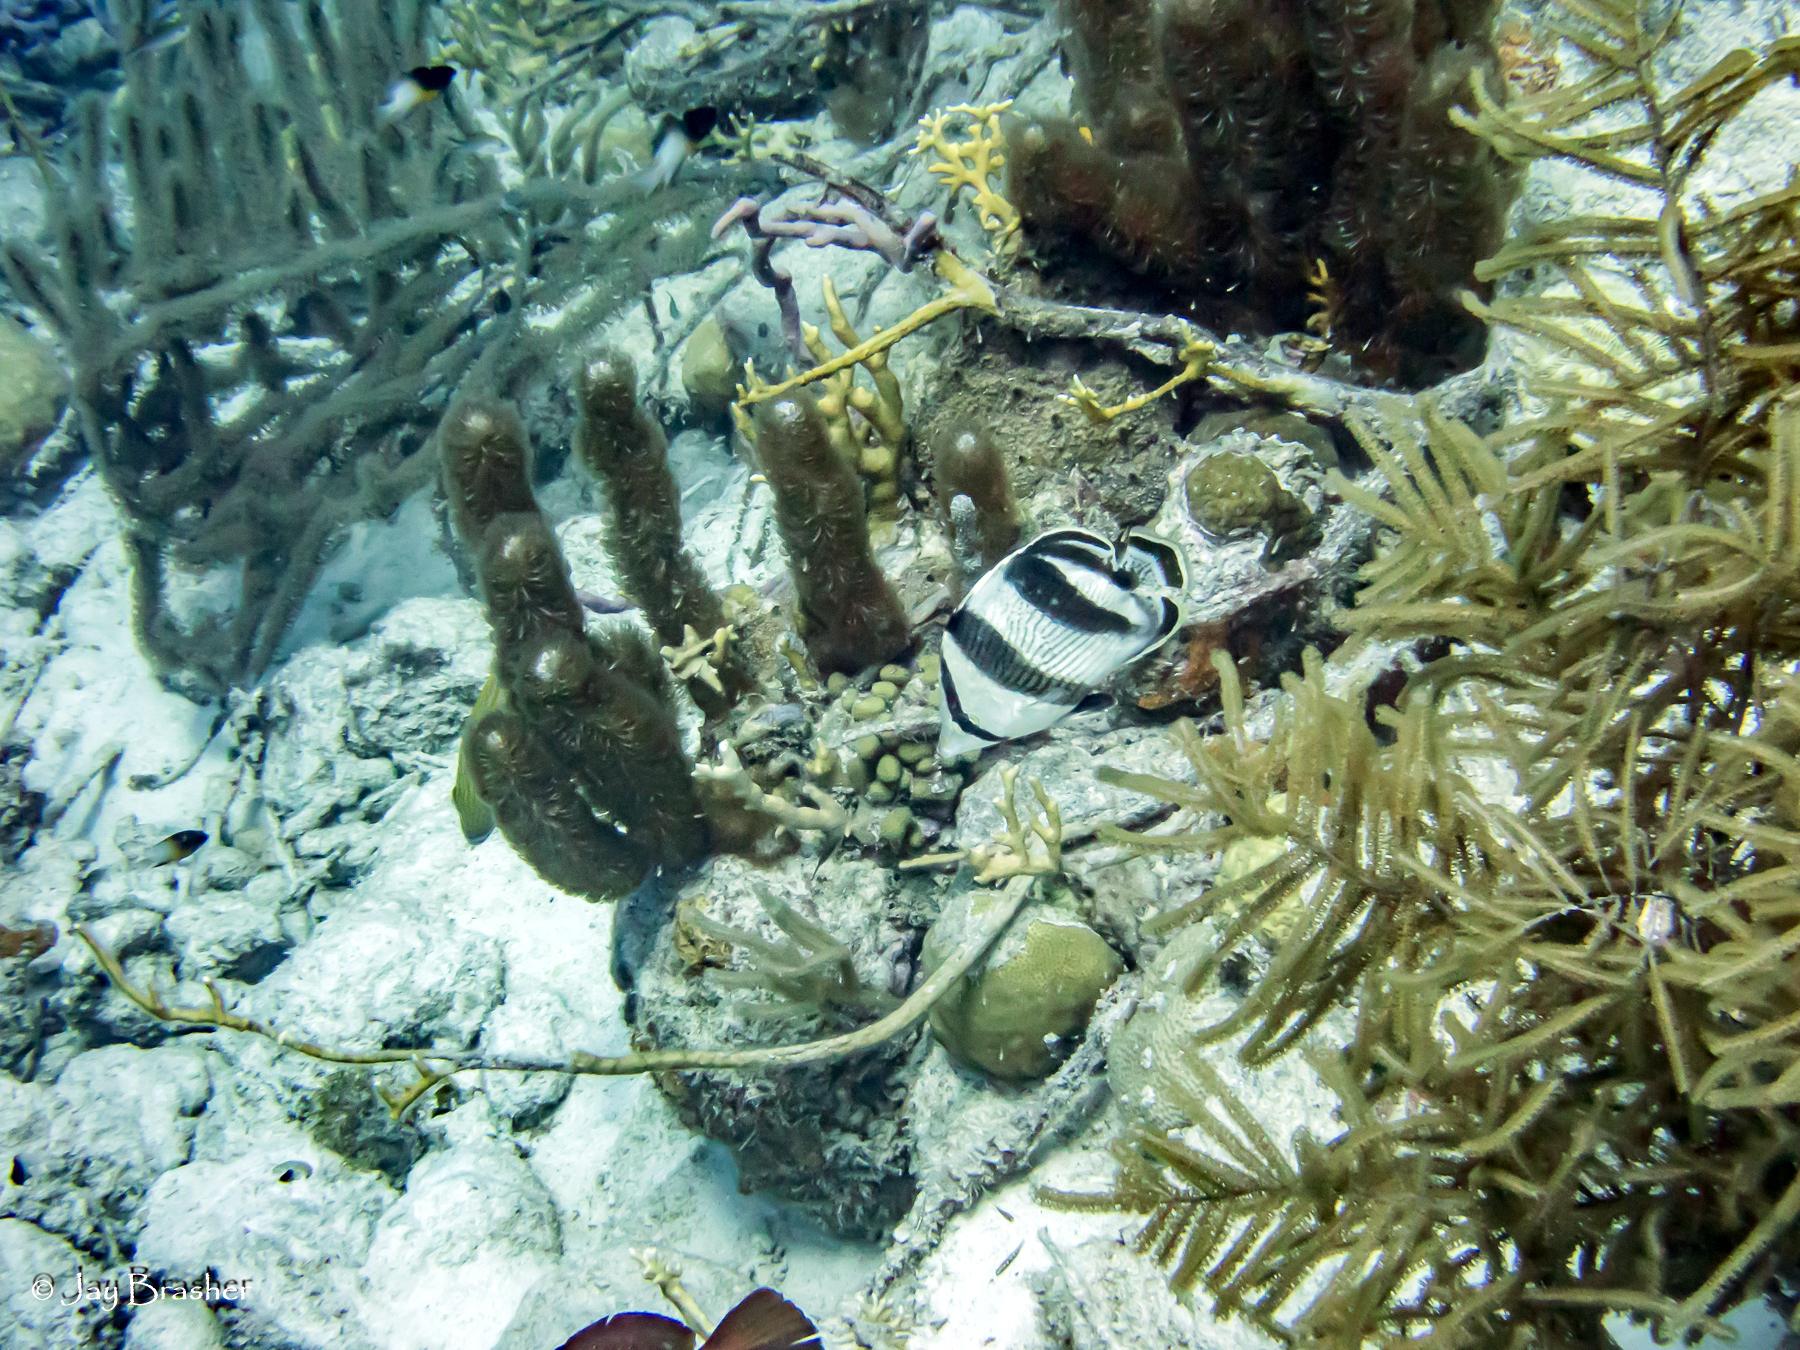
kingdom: Animalia
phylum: Chordata
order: Perciformes
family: Chaetodontidae
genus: Chaetodon
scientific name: Chaetodon striatus
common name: Banded butterflyfish
